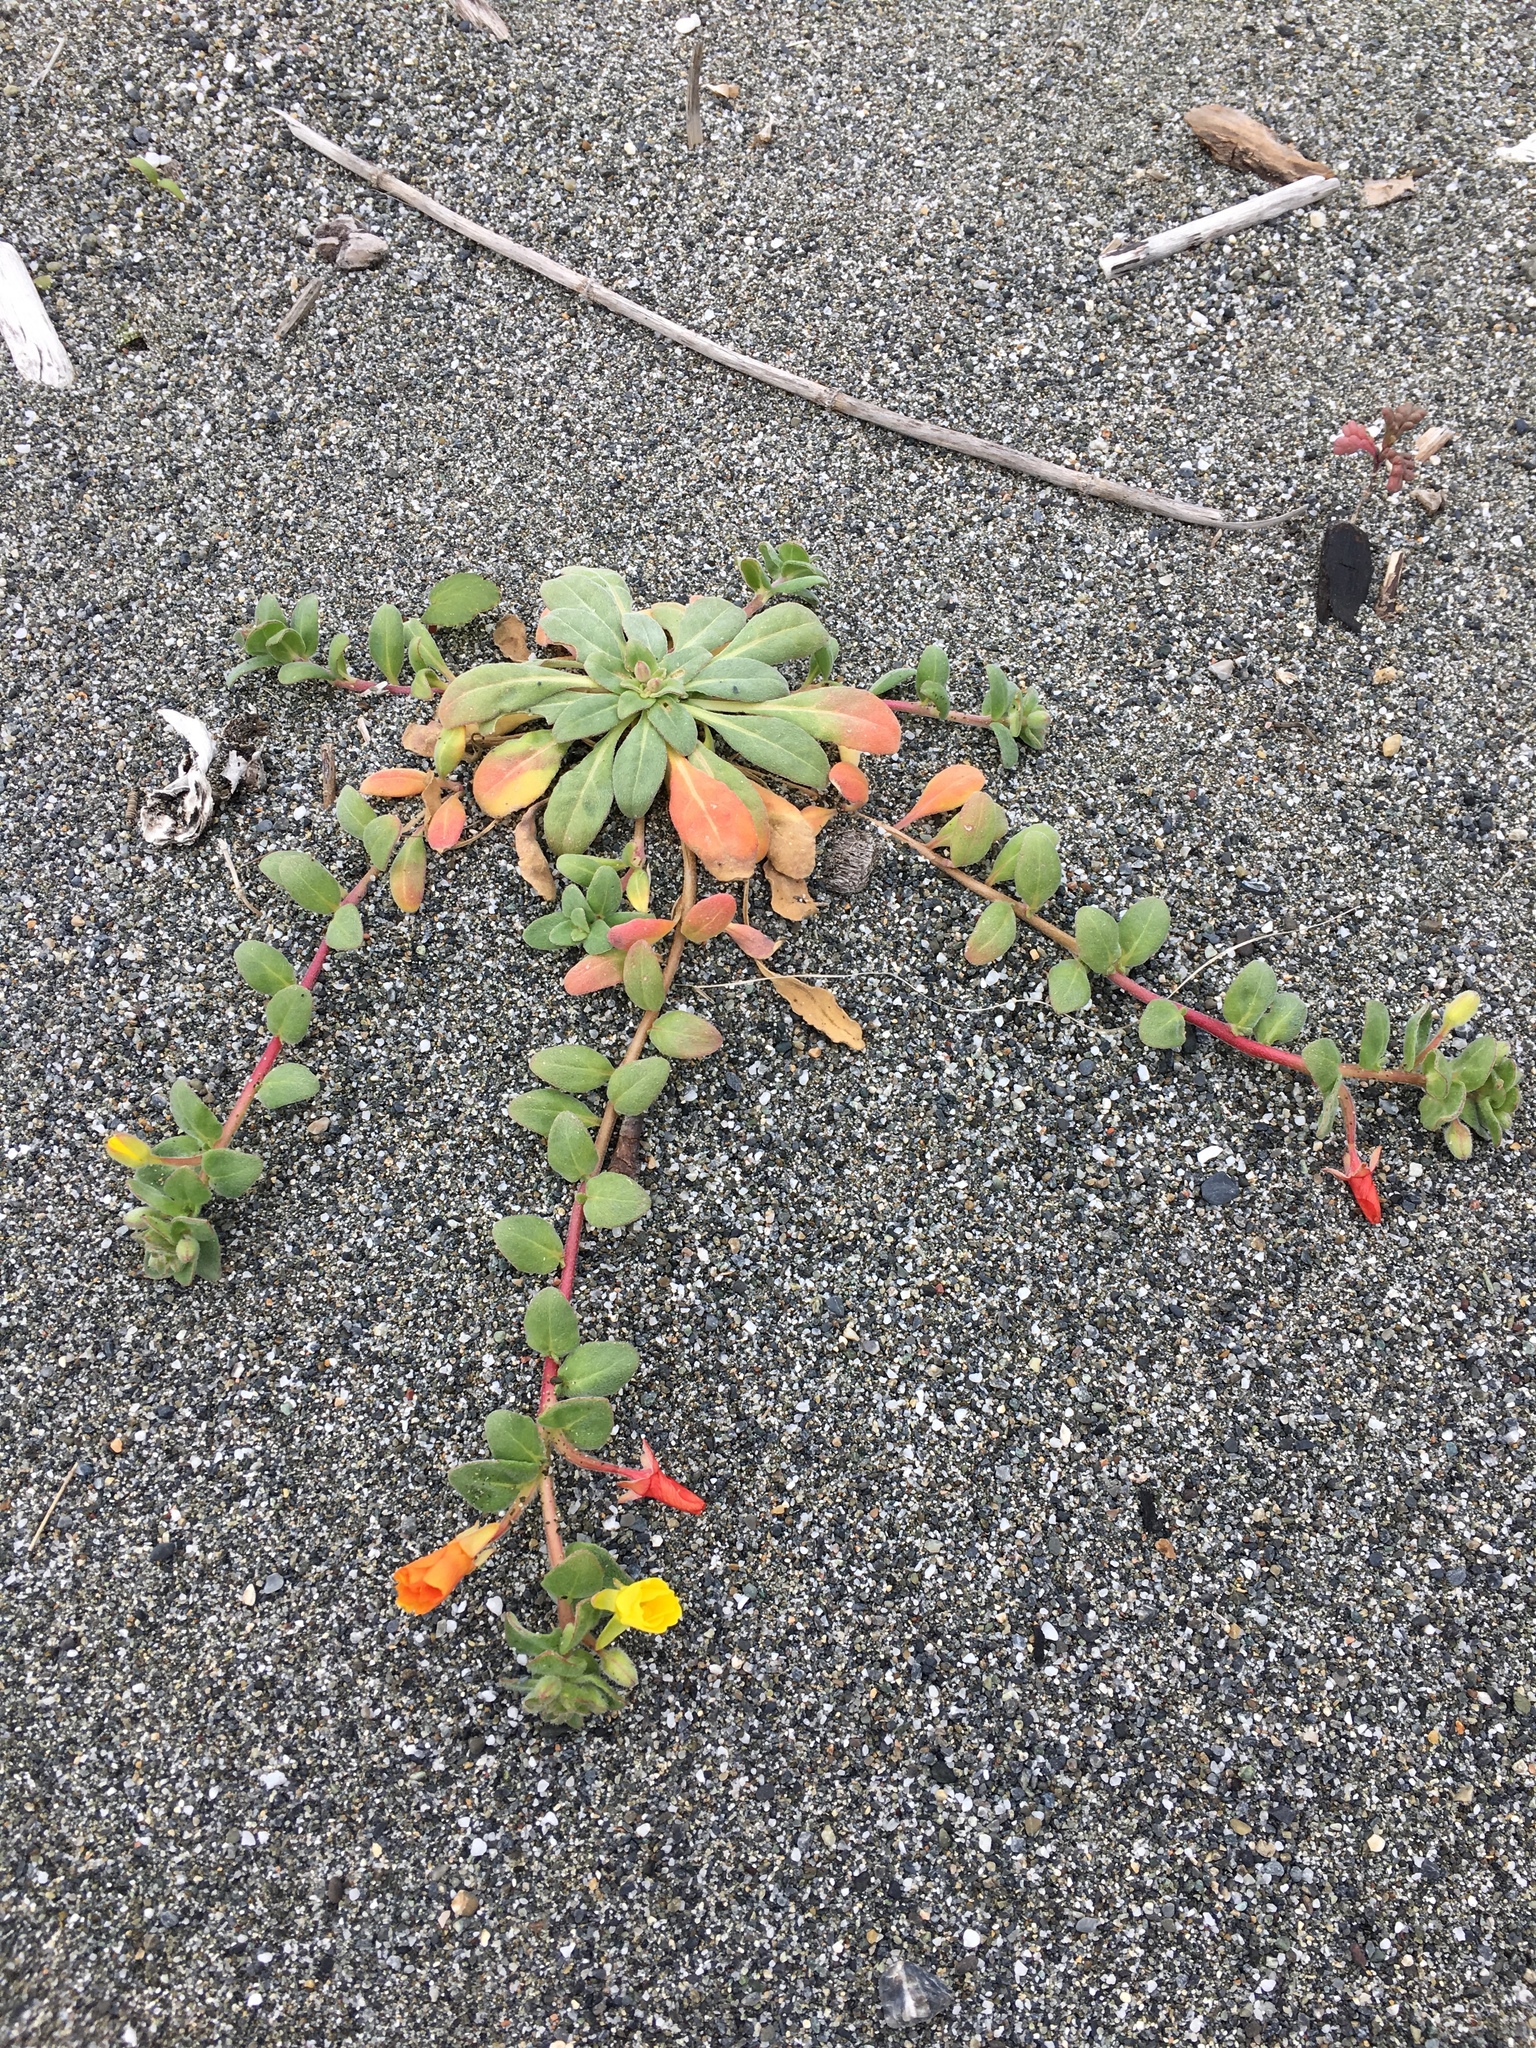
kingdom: Plantae
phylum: Tracheophyta
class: Magnoliopsida
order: Myrtales
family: Onagraceae
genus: Camissoniopsis
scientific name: Camissoniopsis cheiranthifolia
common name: Beach suncup
